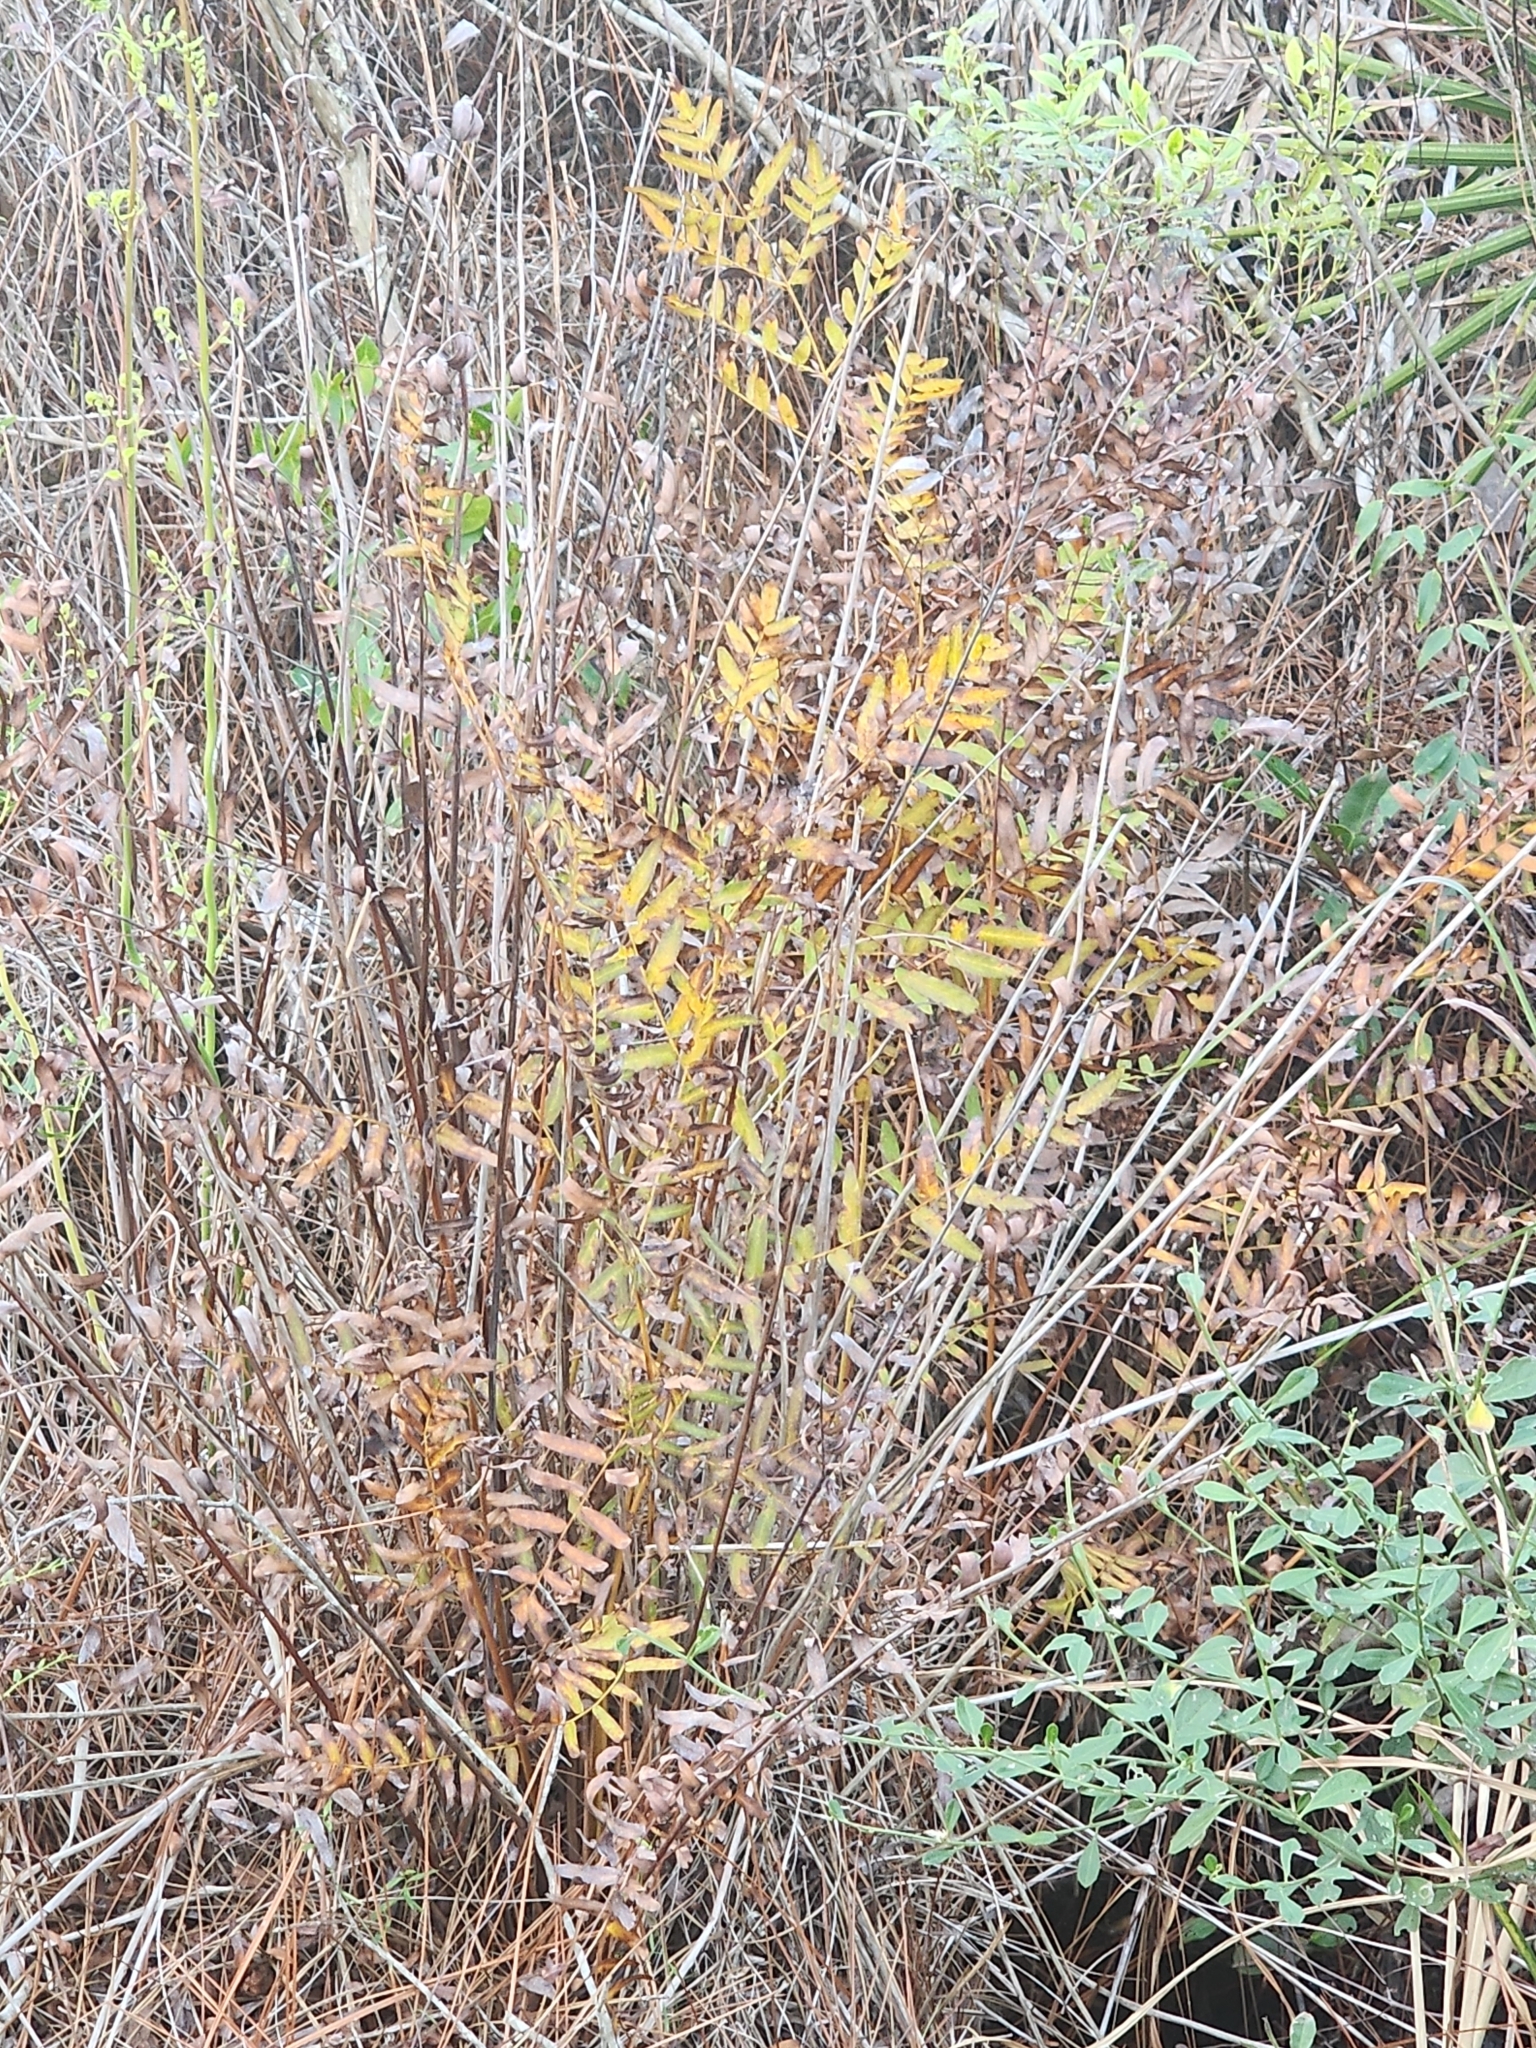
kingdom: Plantae
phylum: Tracheophyta
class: Polypodiopsida
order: Osmundales
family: Osmundaceae
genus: Osmunda
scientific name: Osmunda spectabilis
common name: American royal fern
